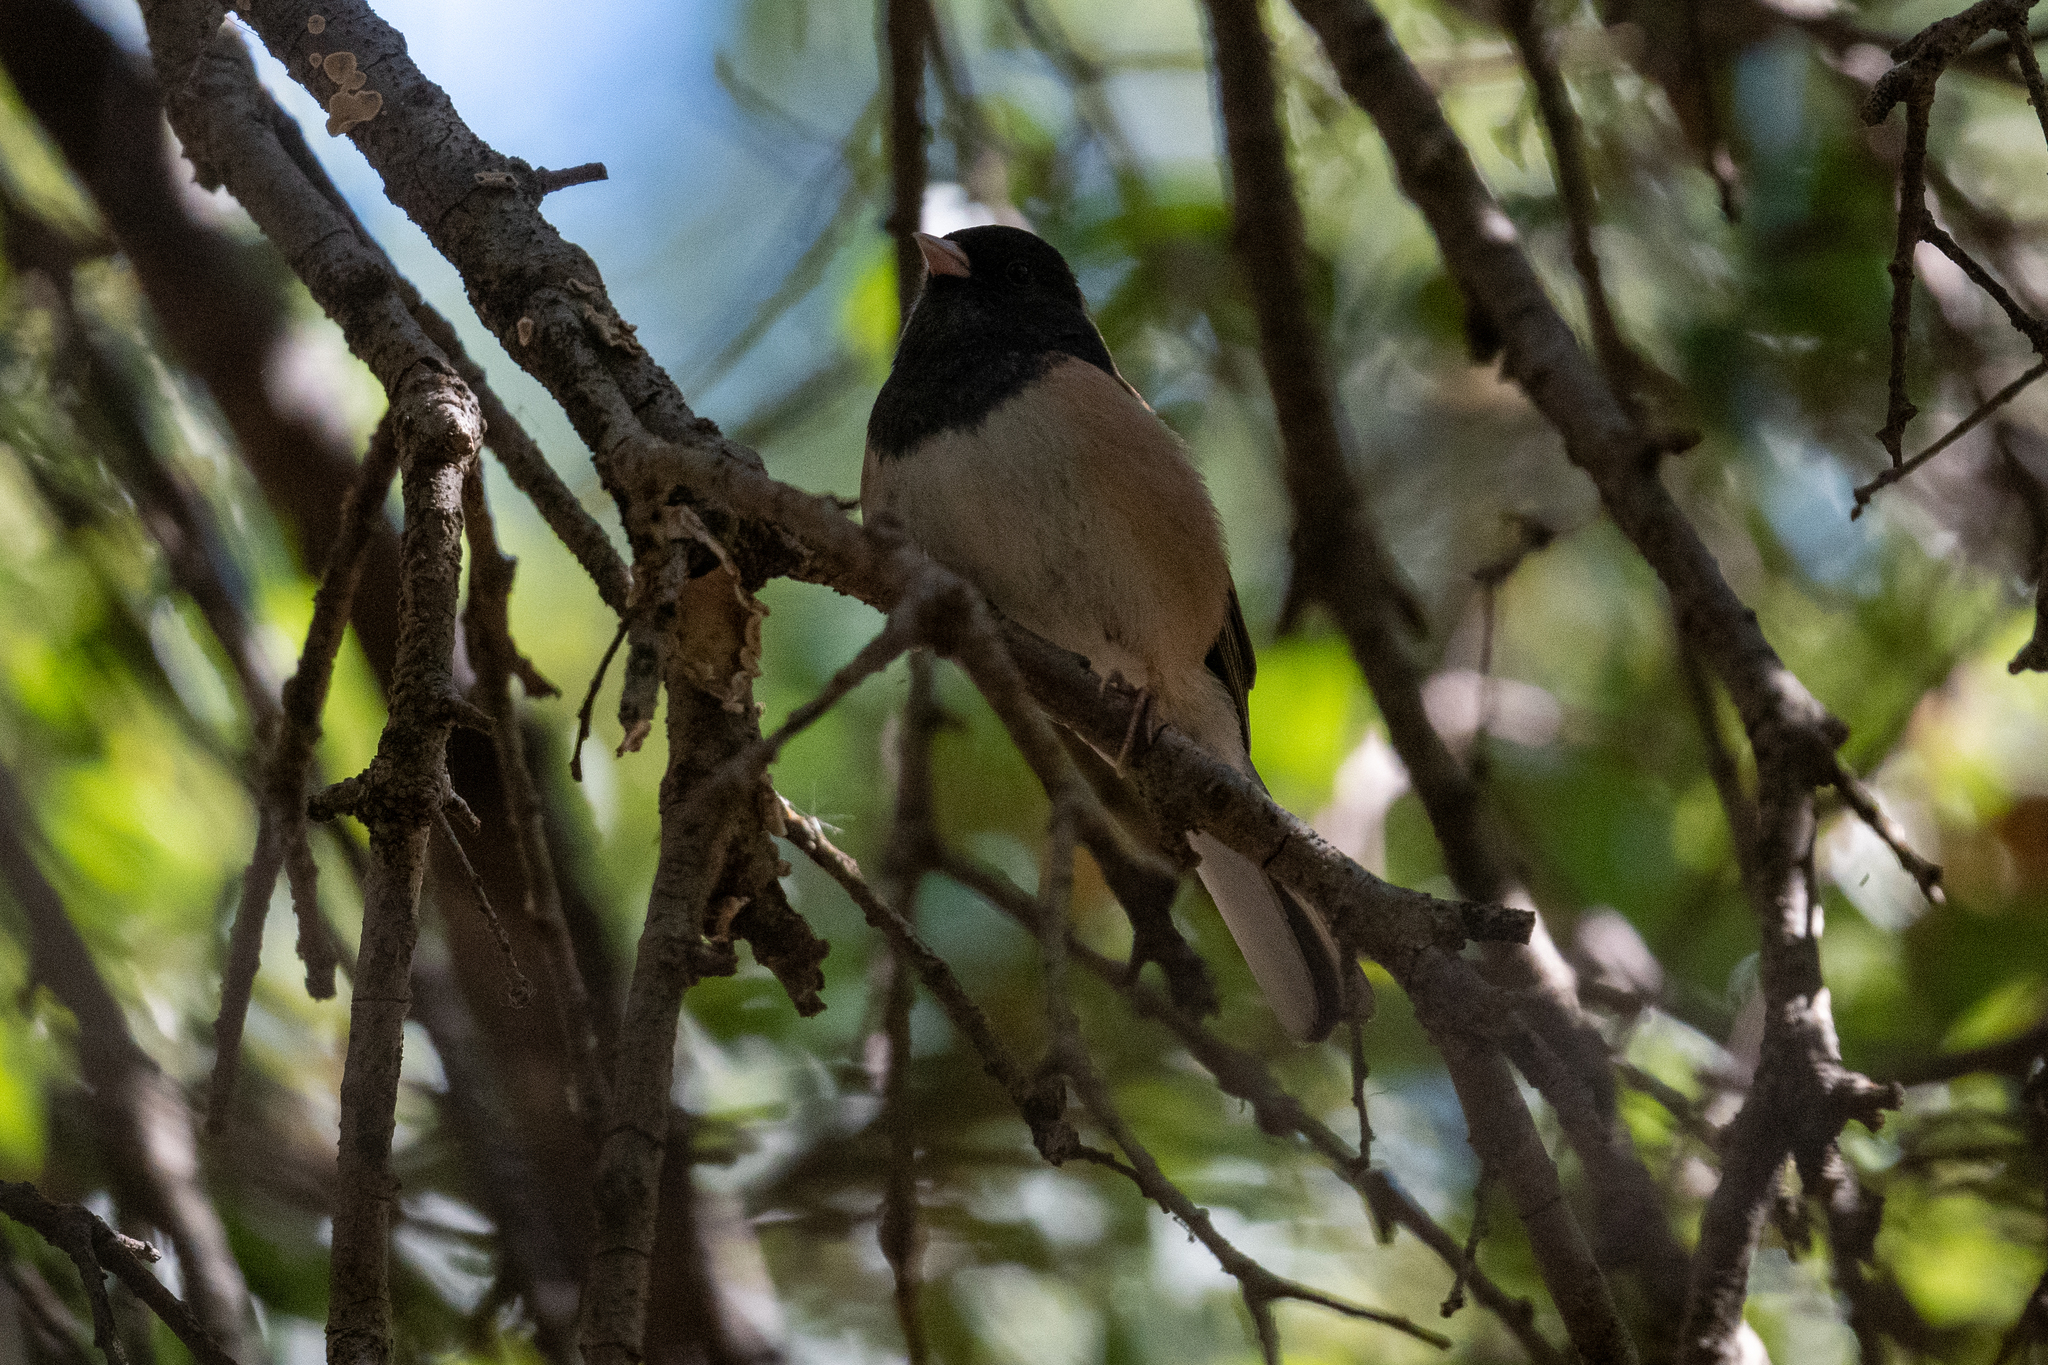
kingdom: Animalia
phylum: Chordata
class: Aves
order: Passeriformes
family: Passerellidae
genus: Junco
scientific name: Junco hyemalis
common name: Dark-eyed junco
